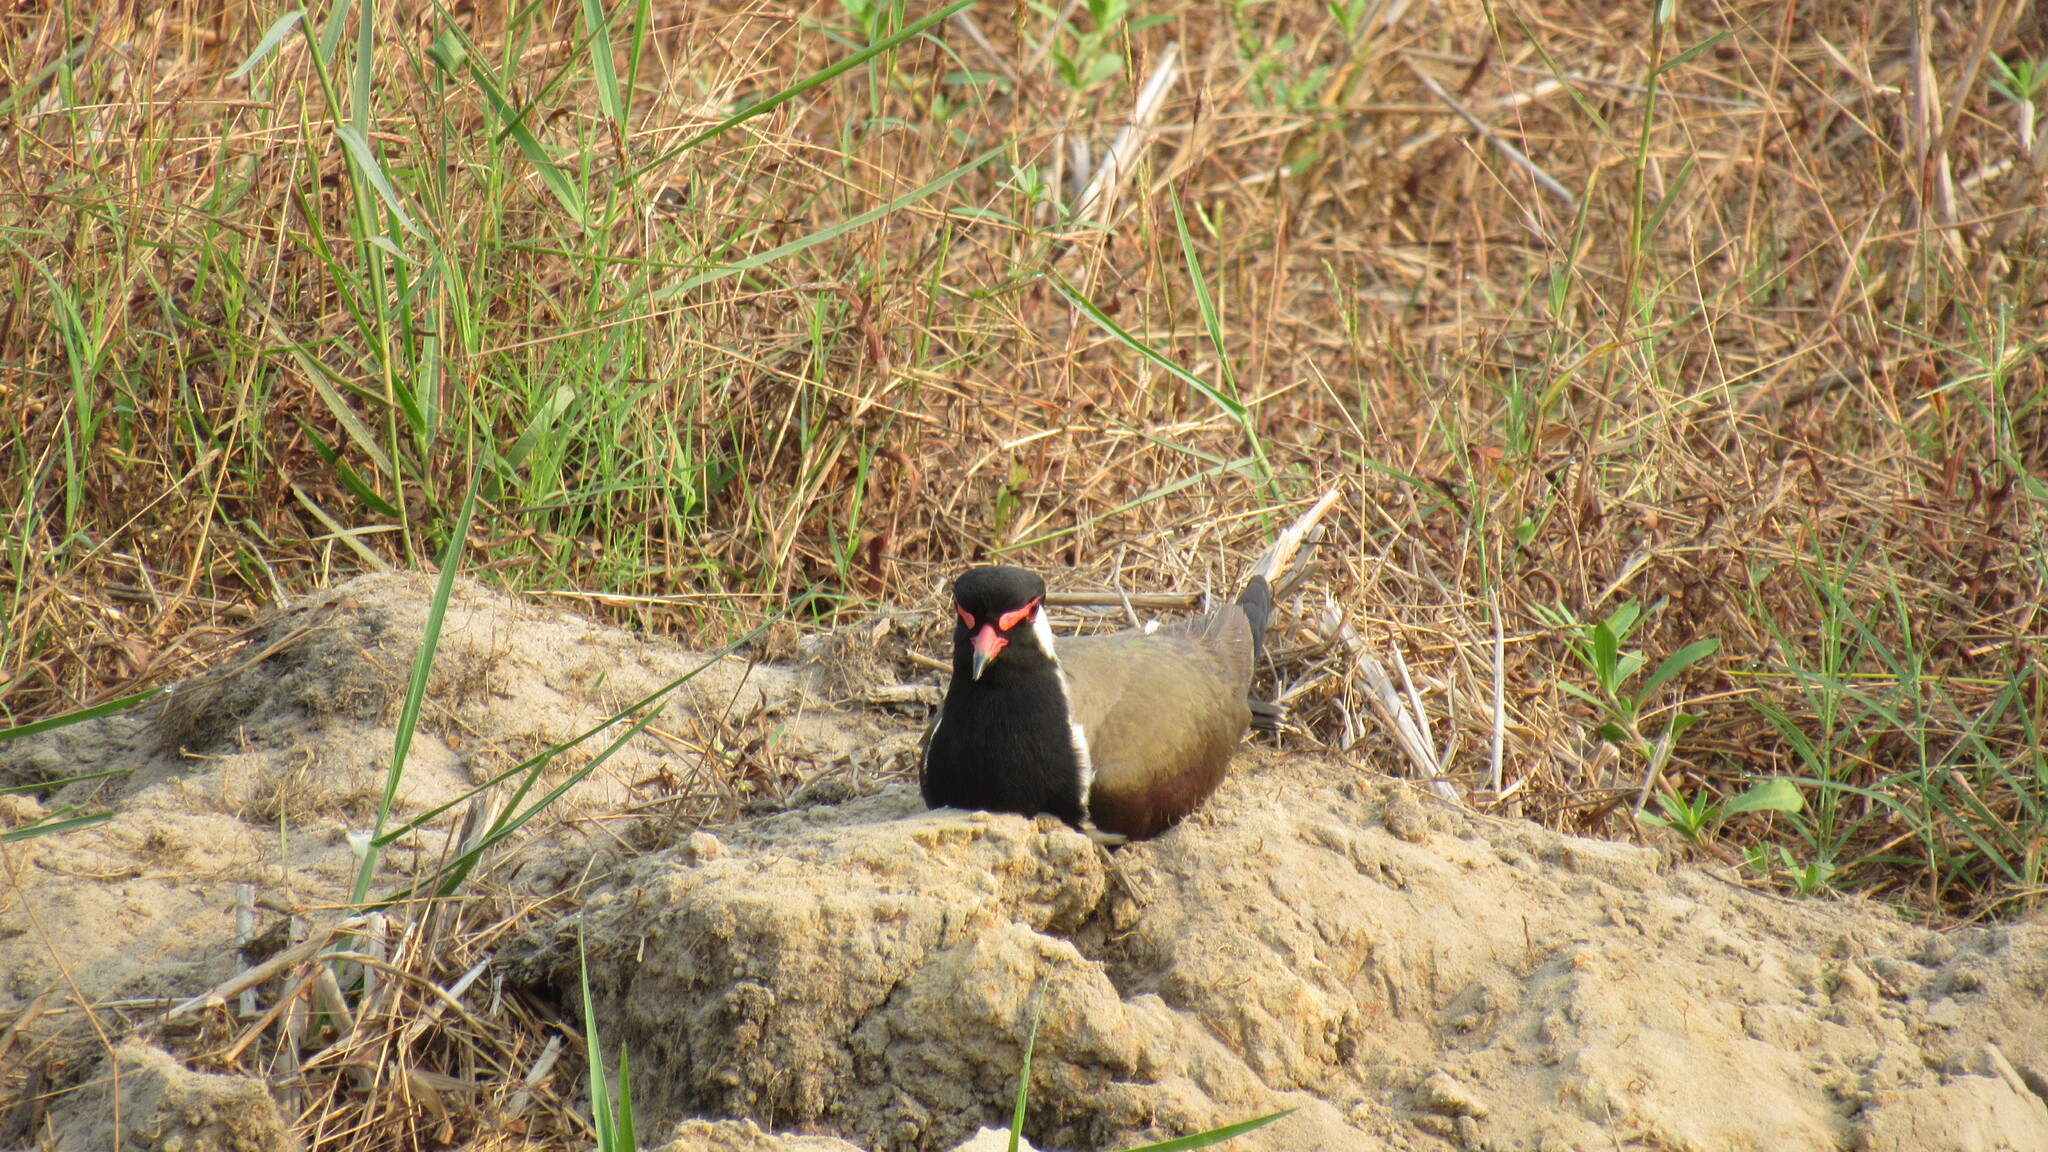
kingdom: Animalia
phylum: Chordata
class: Aves
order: Charadriiformes
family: Charadriidae
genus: Vanellus
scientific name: Vanellus indicus
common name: Red-wattled lapwing
